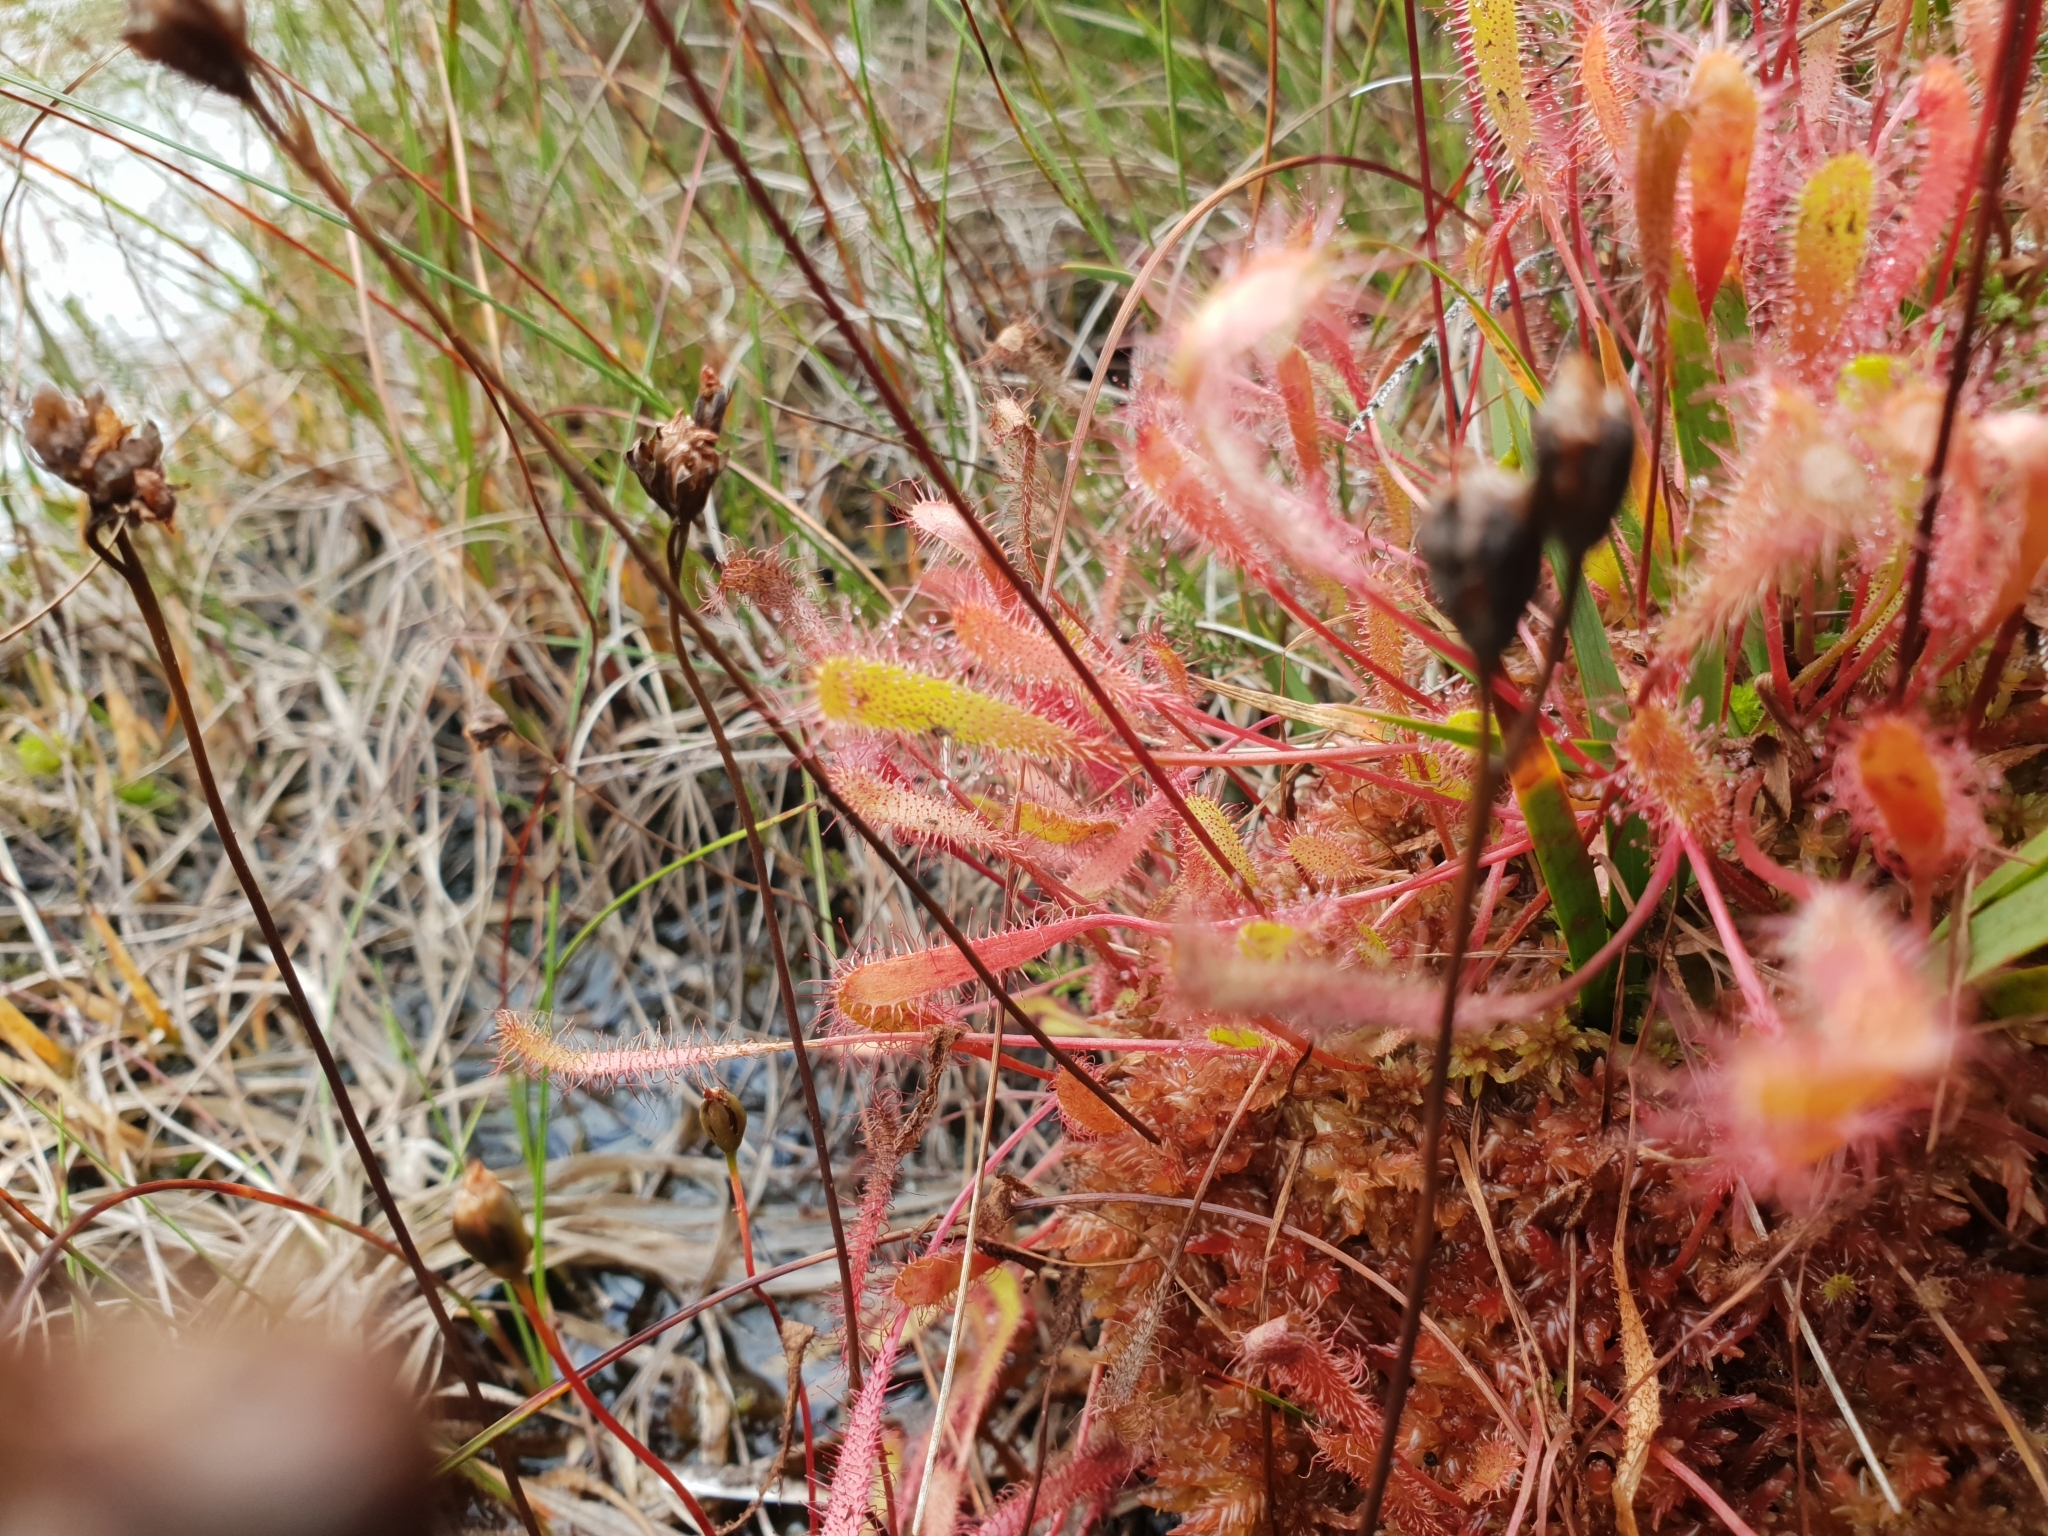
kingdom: Plantae
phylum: Tracheophyta
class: Magnoliopsida
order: Caryophyllales
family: Droseraceae
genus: Drosera
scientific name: Drosera anglica
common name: Great sundew
